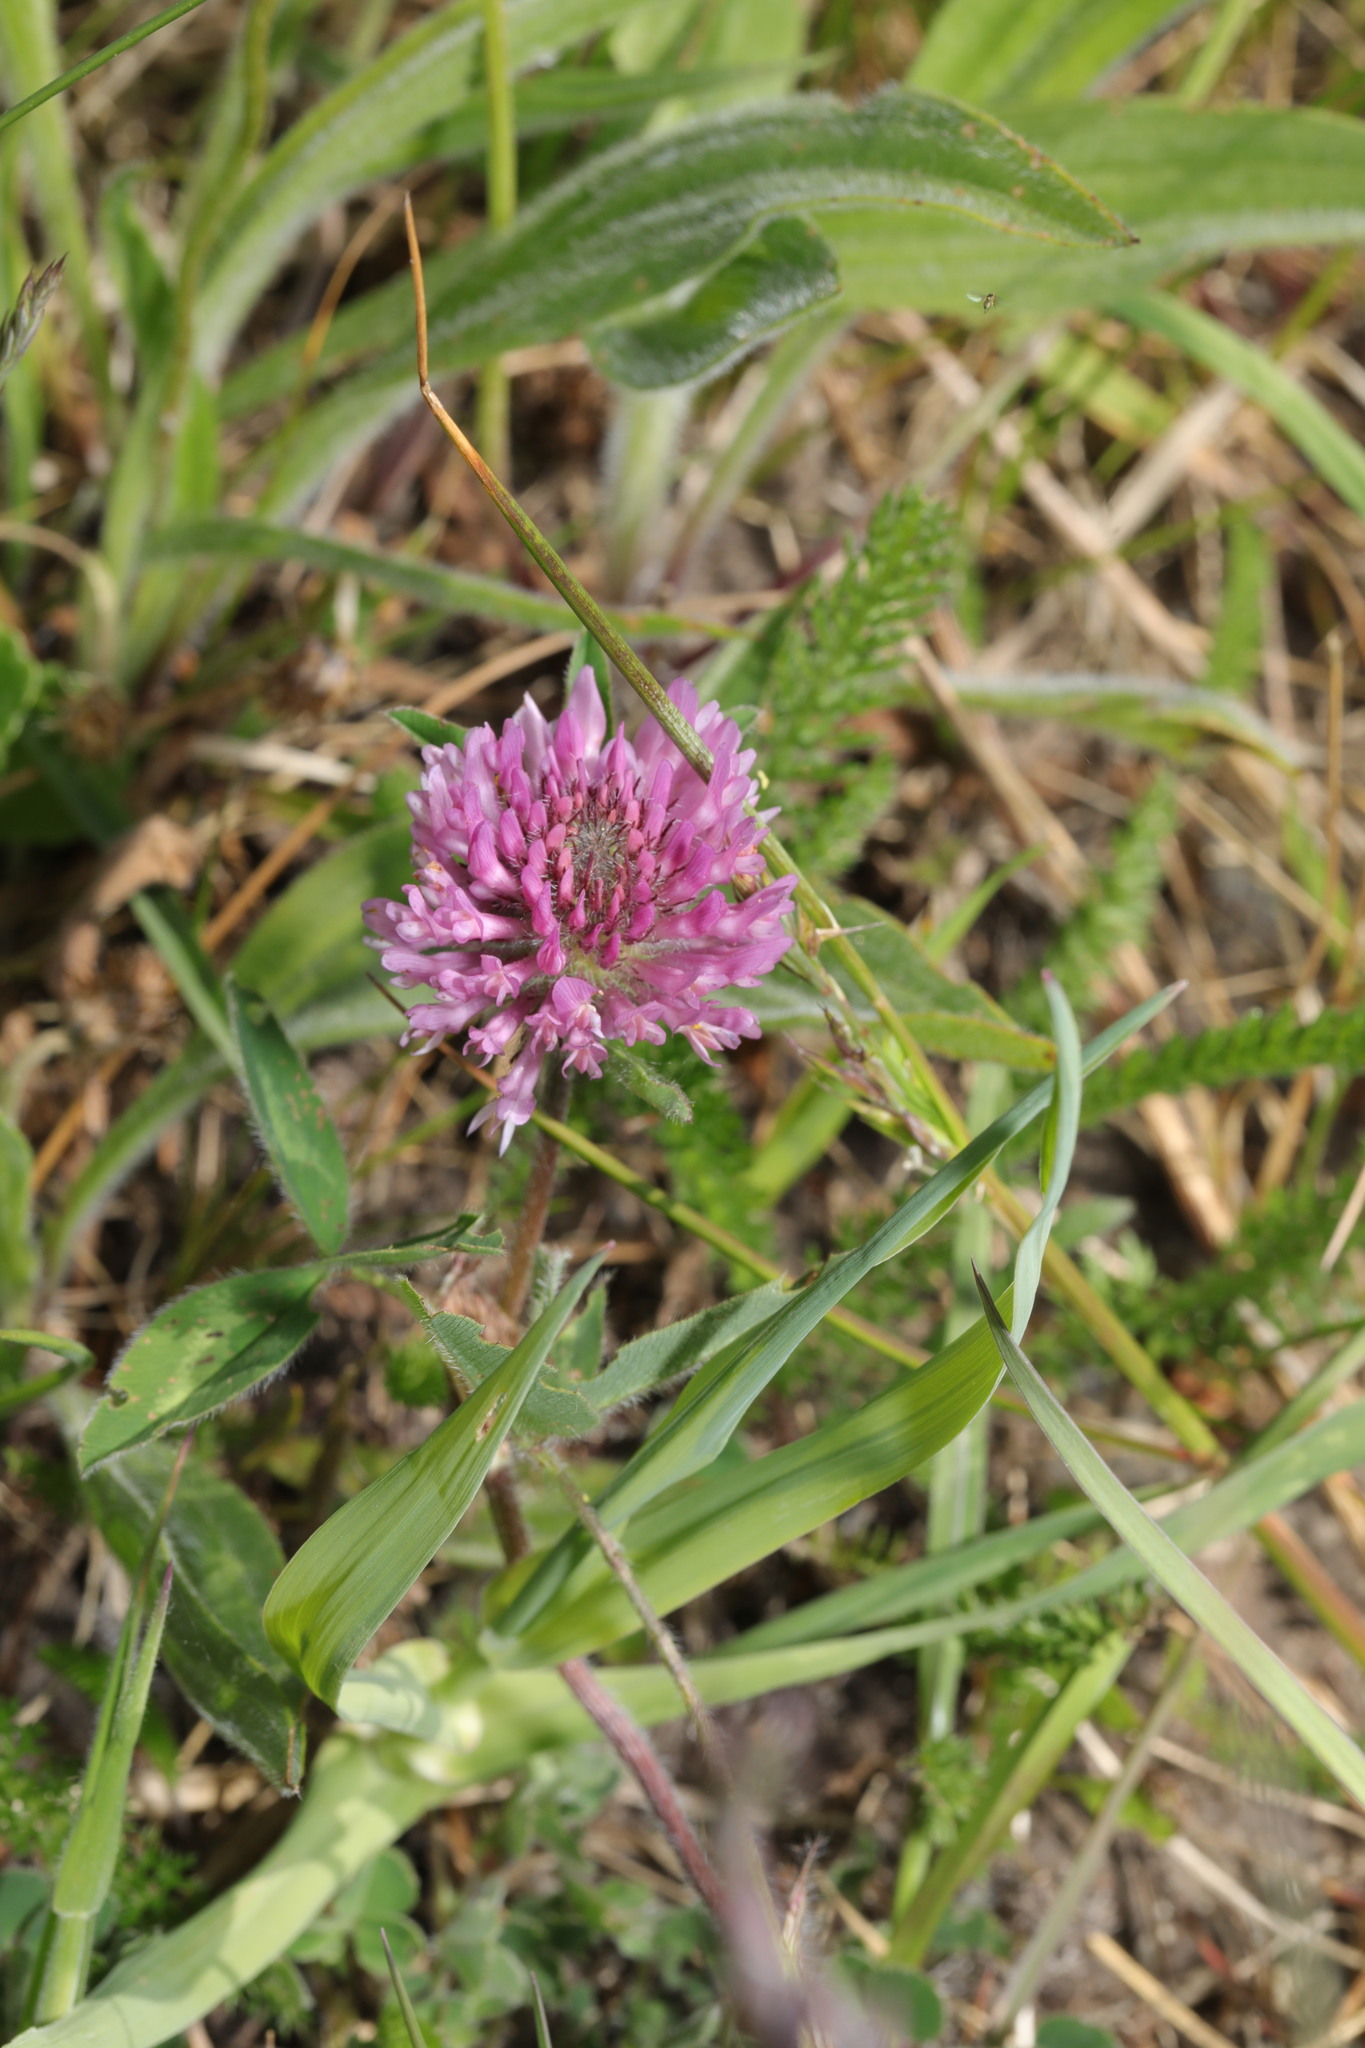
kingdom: Plantae
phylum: Tracheophyta
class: Magnoliopsida
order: Fabales
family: Fabaceae
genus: Trifolium
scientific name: Trifolium pratense
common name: Red clover
